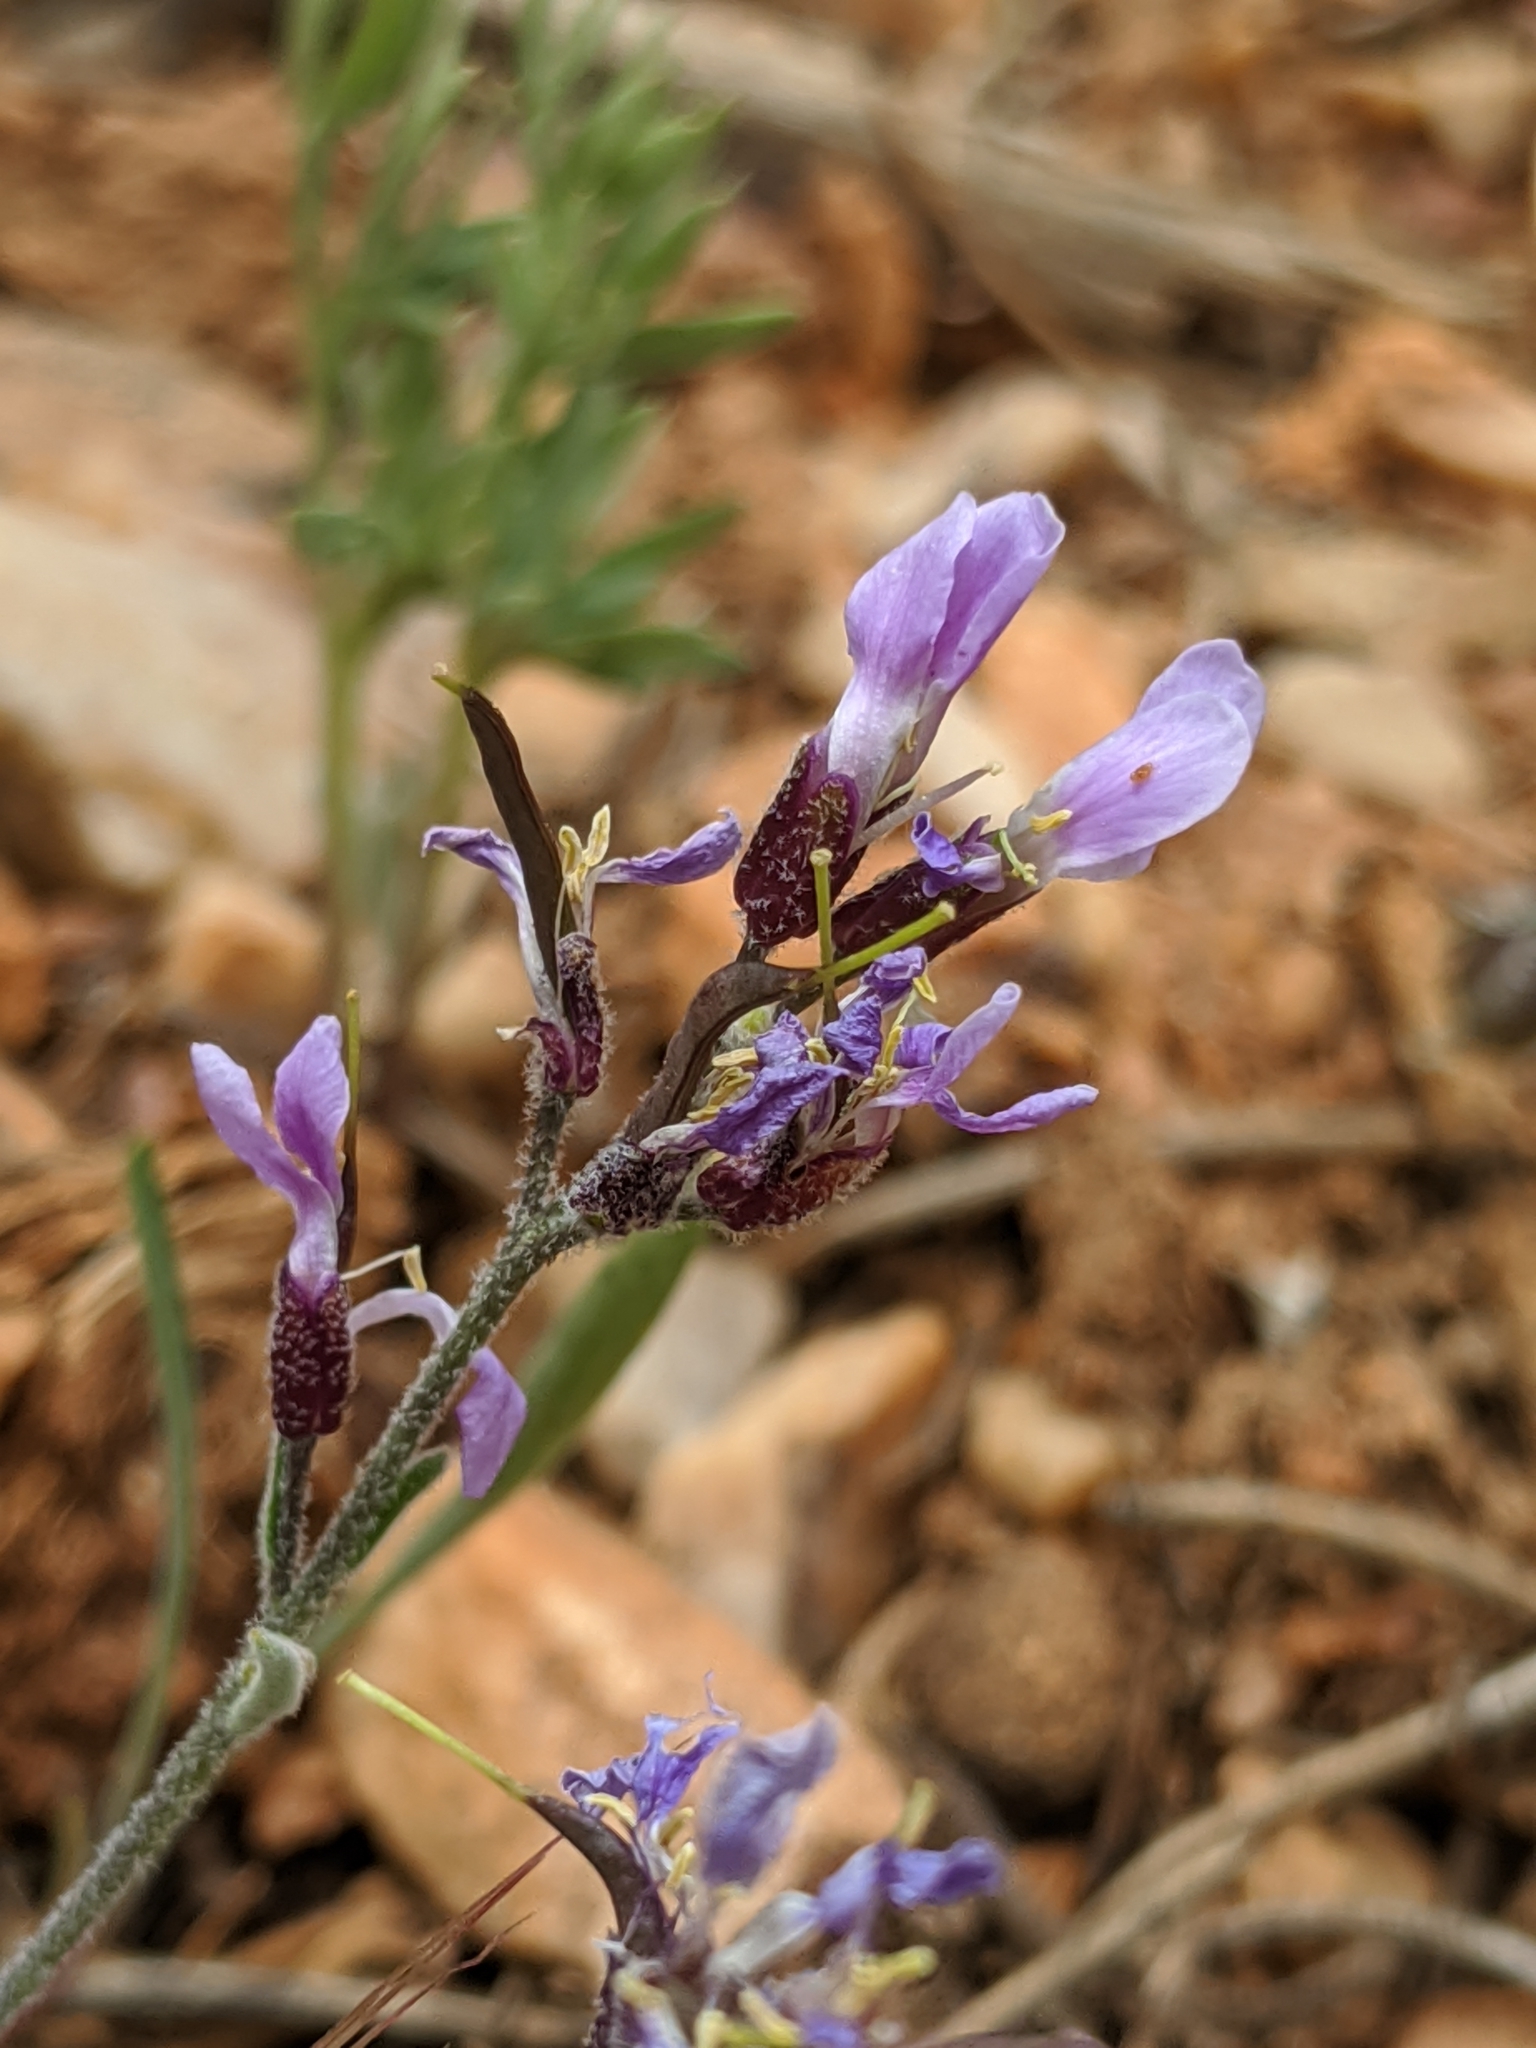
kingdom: Plantae
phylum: Tracheophyta
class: Magnoliopsida
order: Brassicales
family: Brassicaceae
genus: Boechera
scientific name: Boechera parishii
